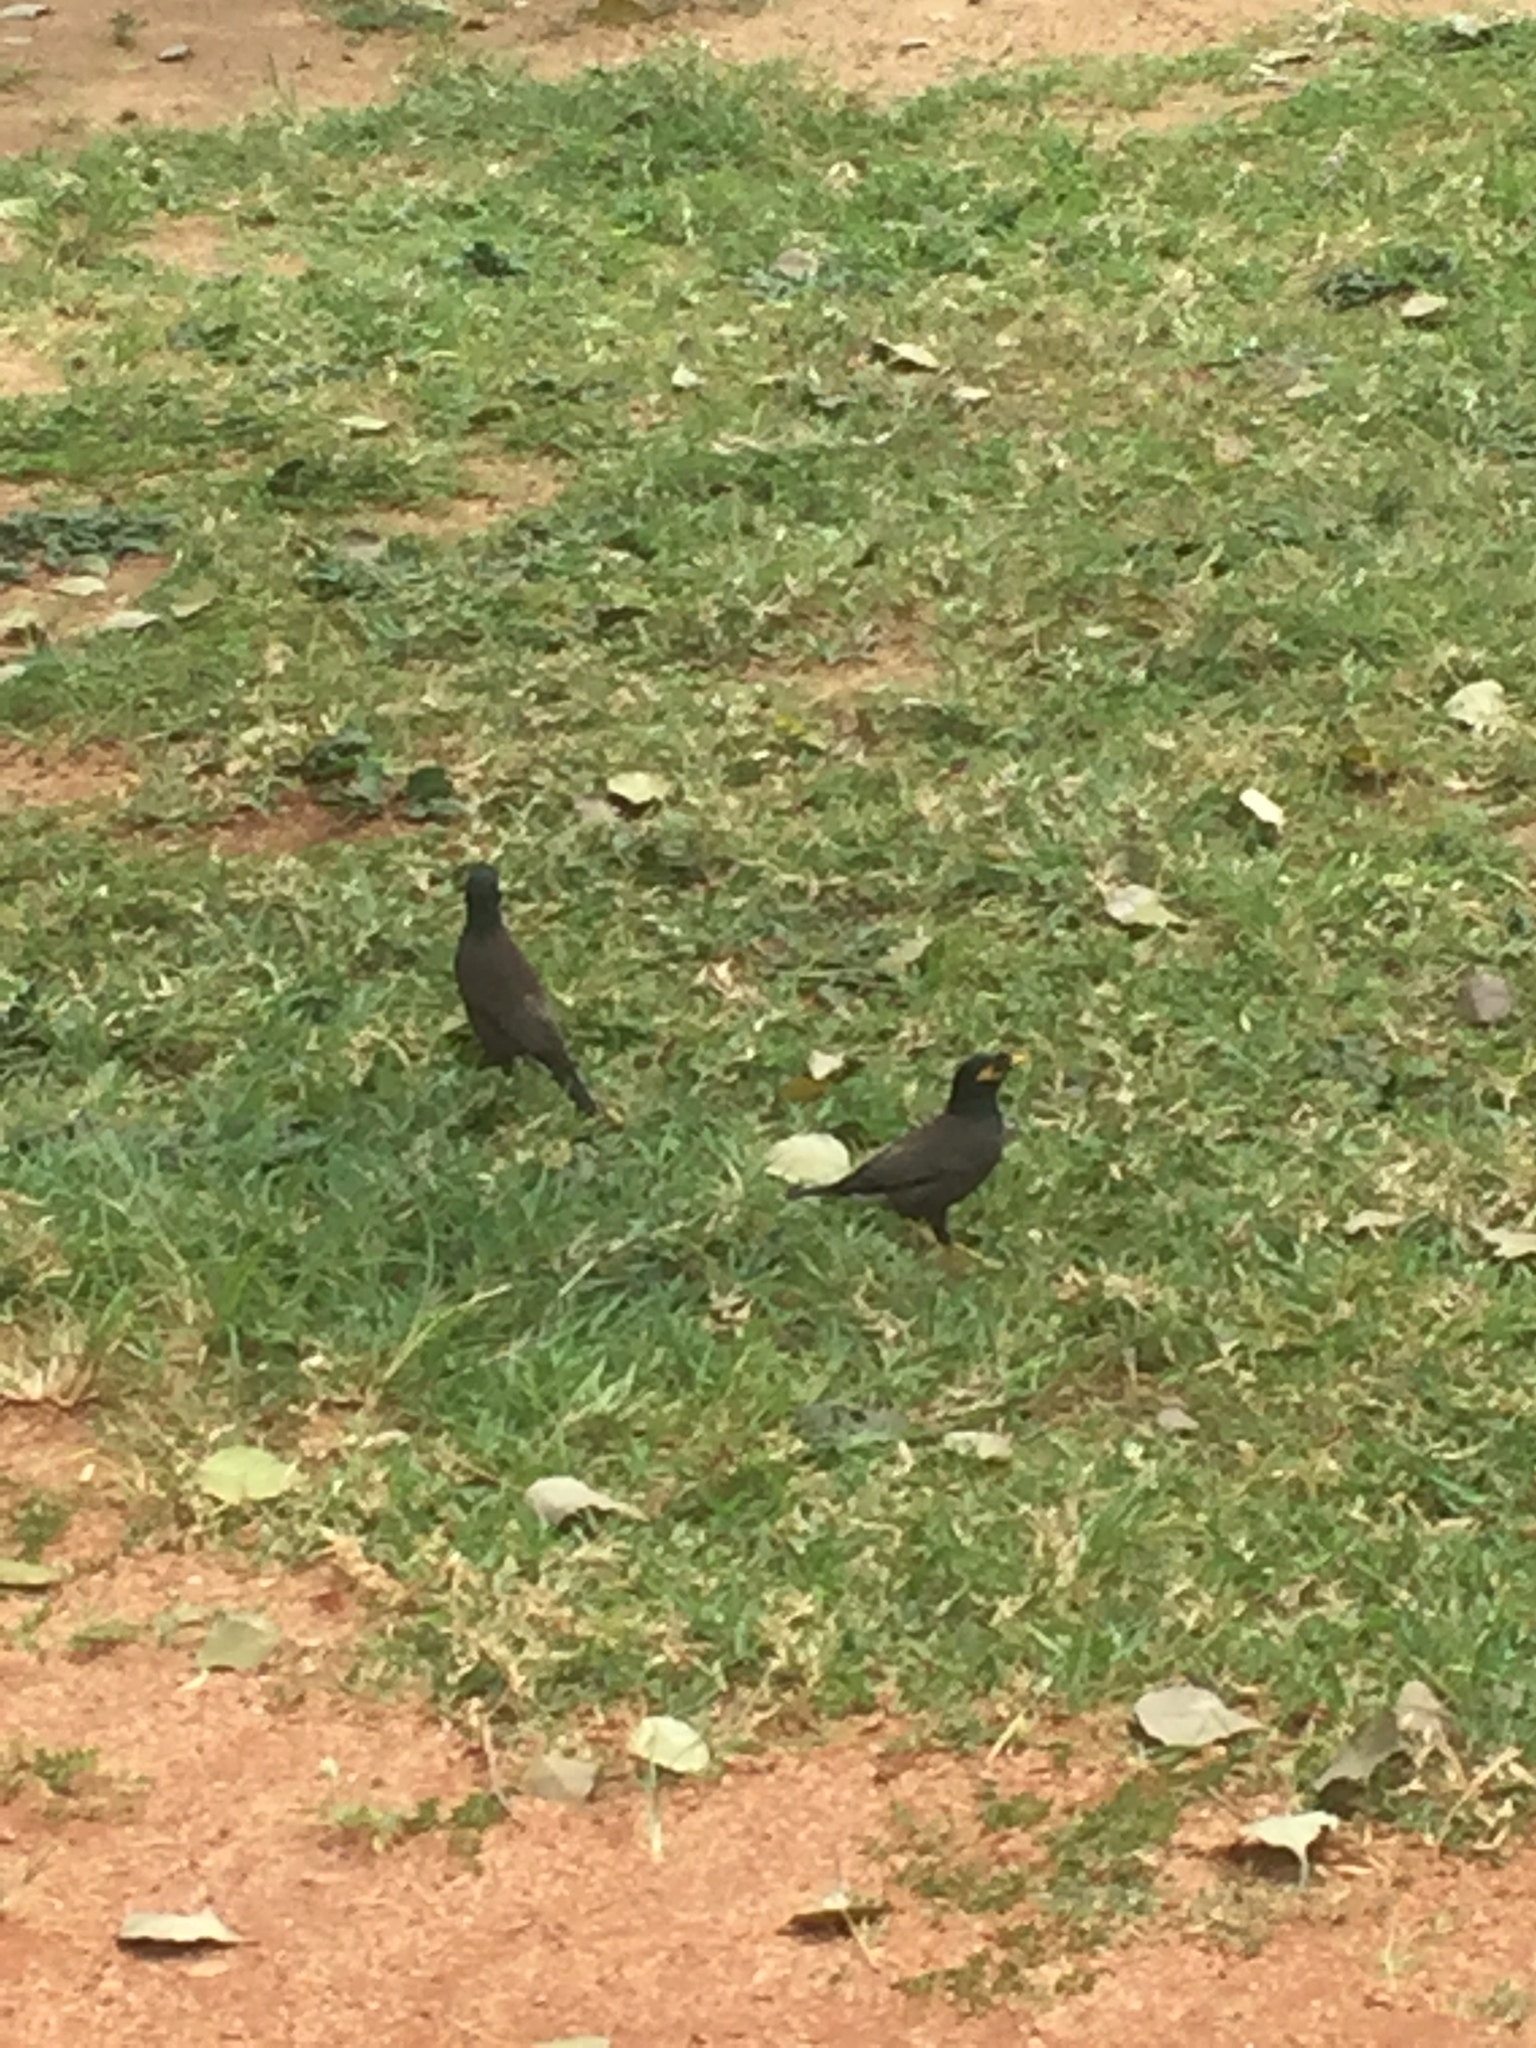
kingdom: Animalia
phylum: Chordata
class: Aves
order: Passeriformes
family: Sturnidae
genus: Acridotheres
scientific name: Acridotheres tristis
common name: Common myna
